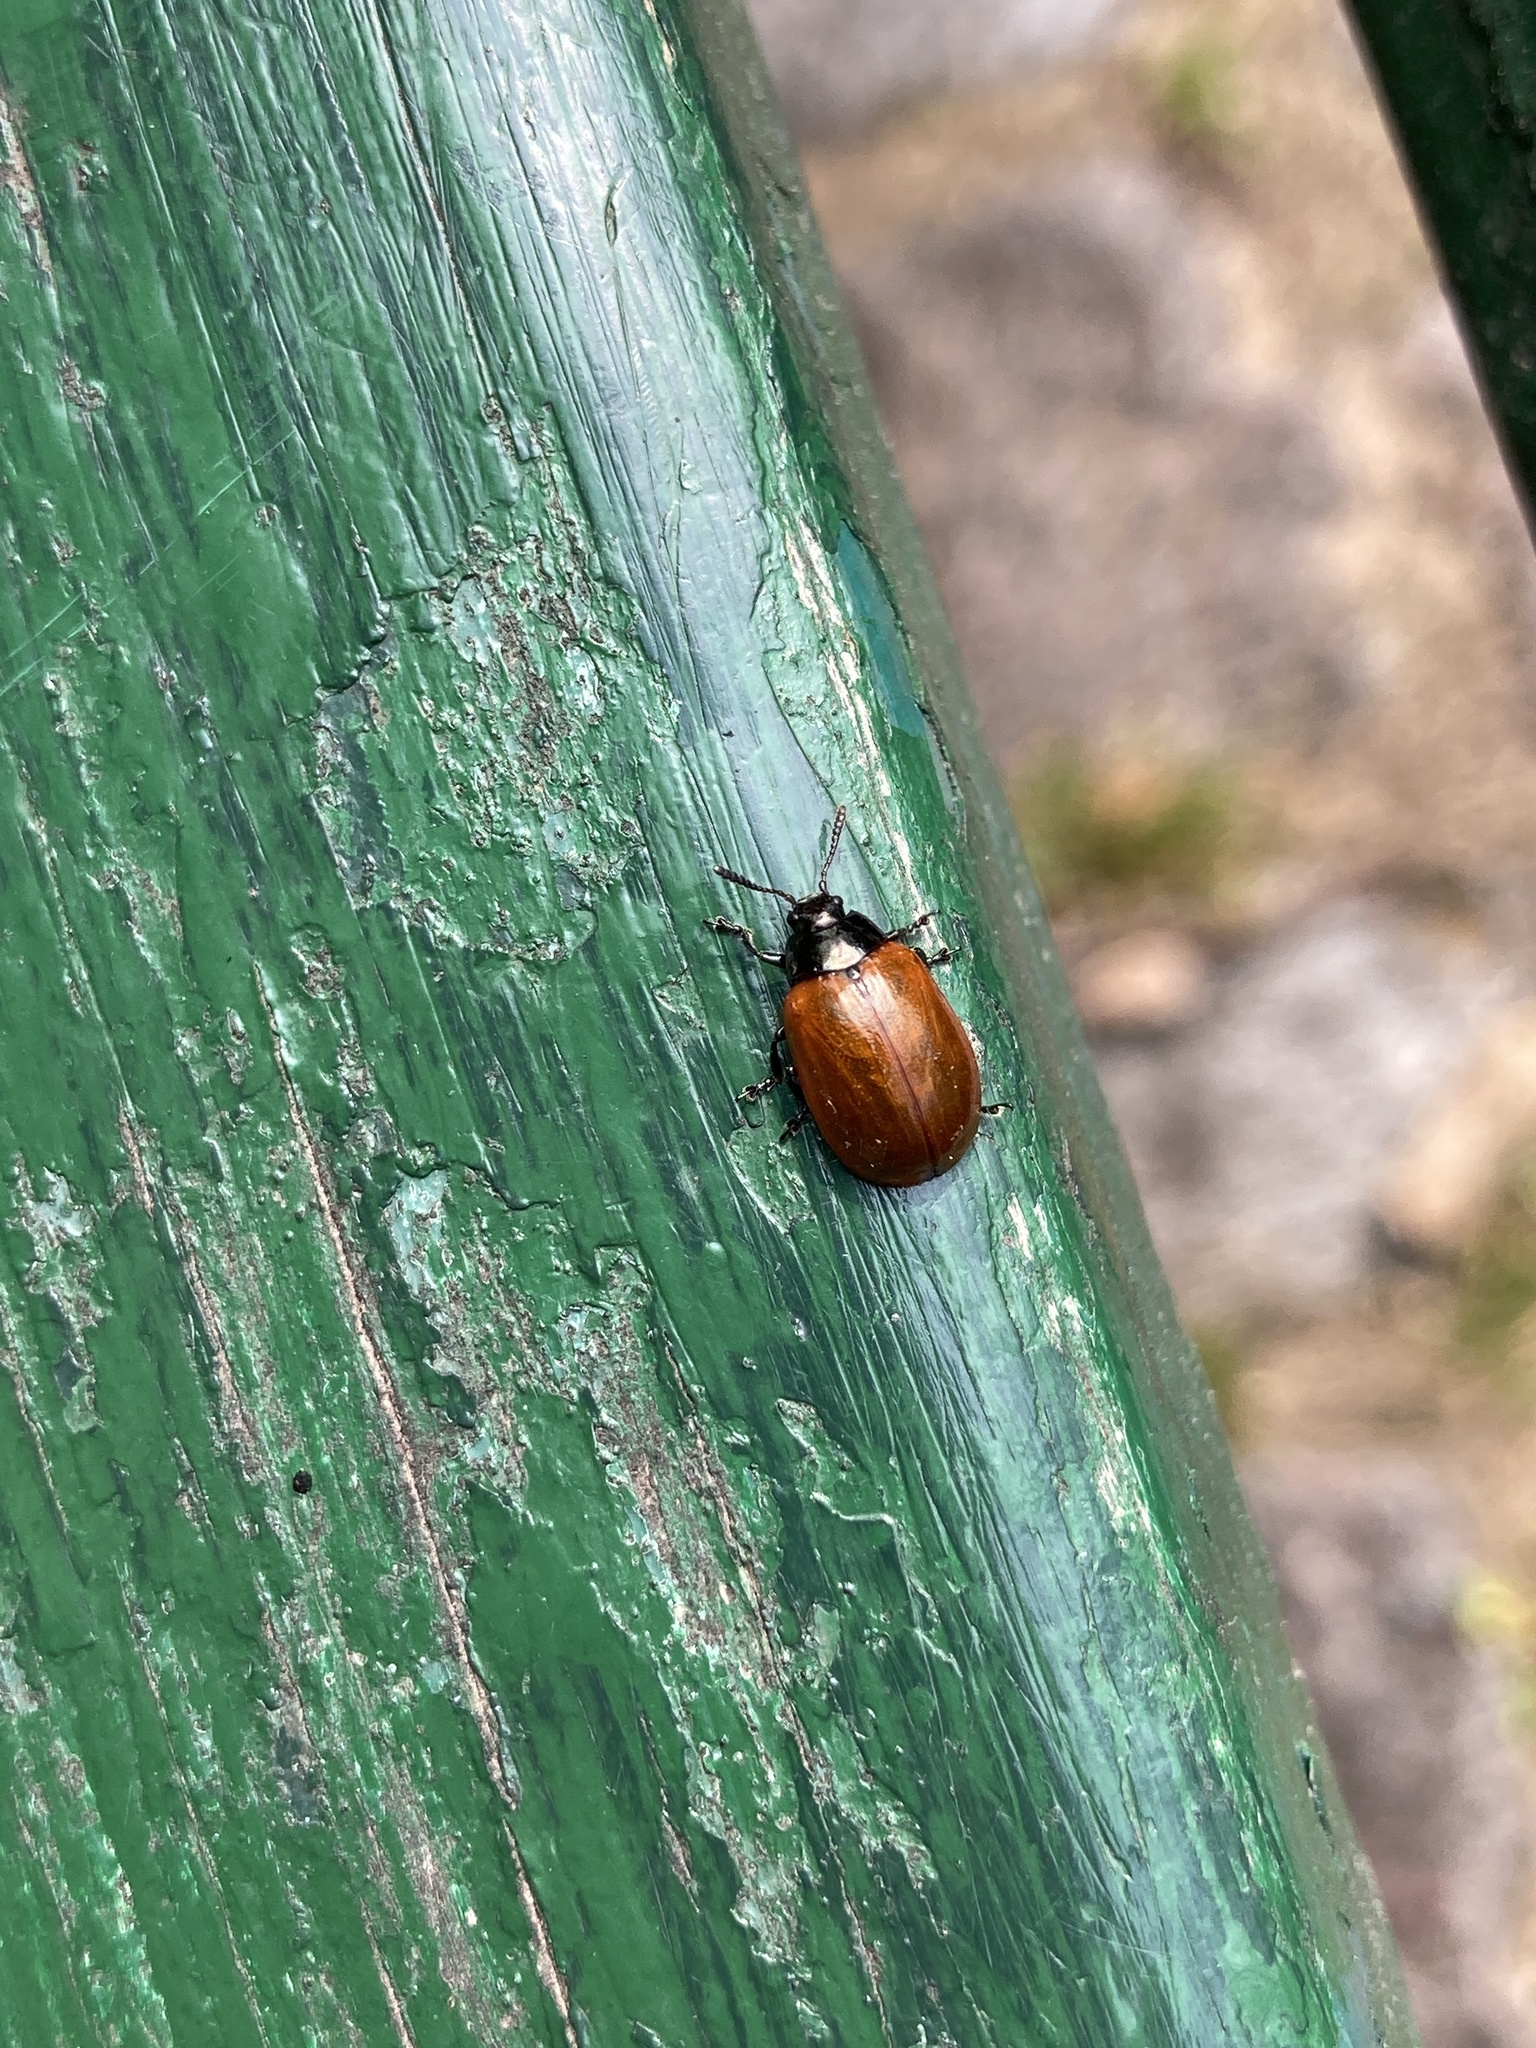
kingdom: Animalia
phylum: Arthropoda
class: Insecta
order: Coleoptera
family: Chrysomelidae
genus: Plagiodera
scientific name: Plagiodera
